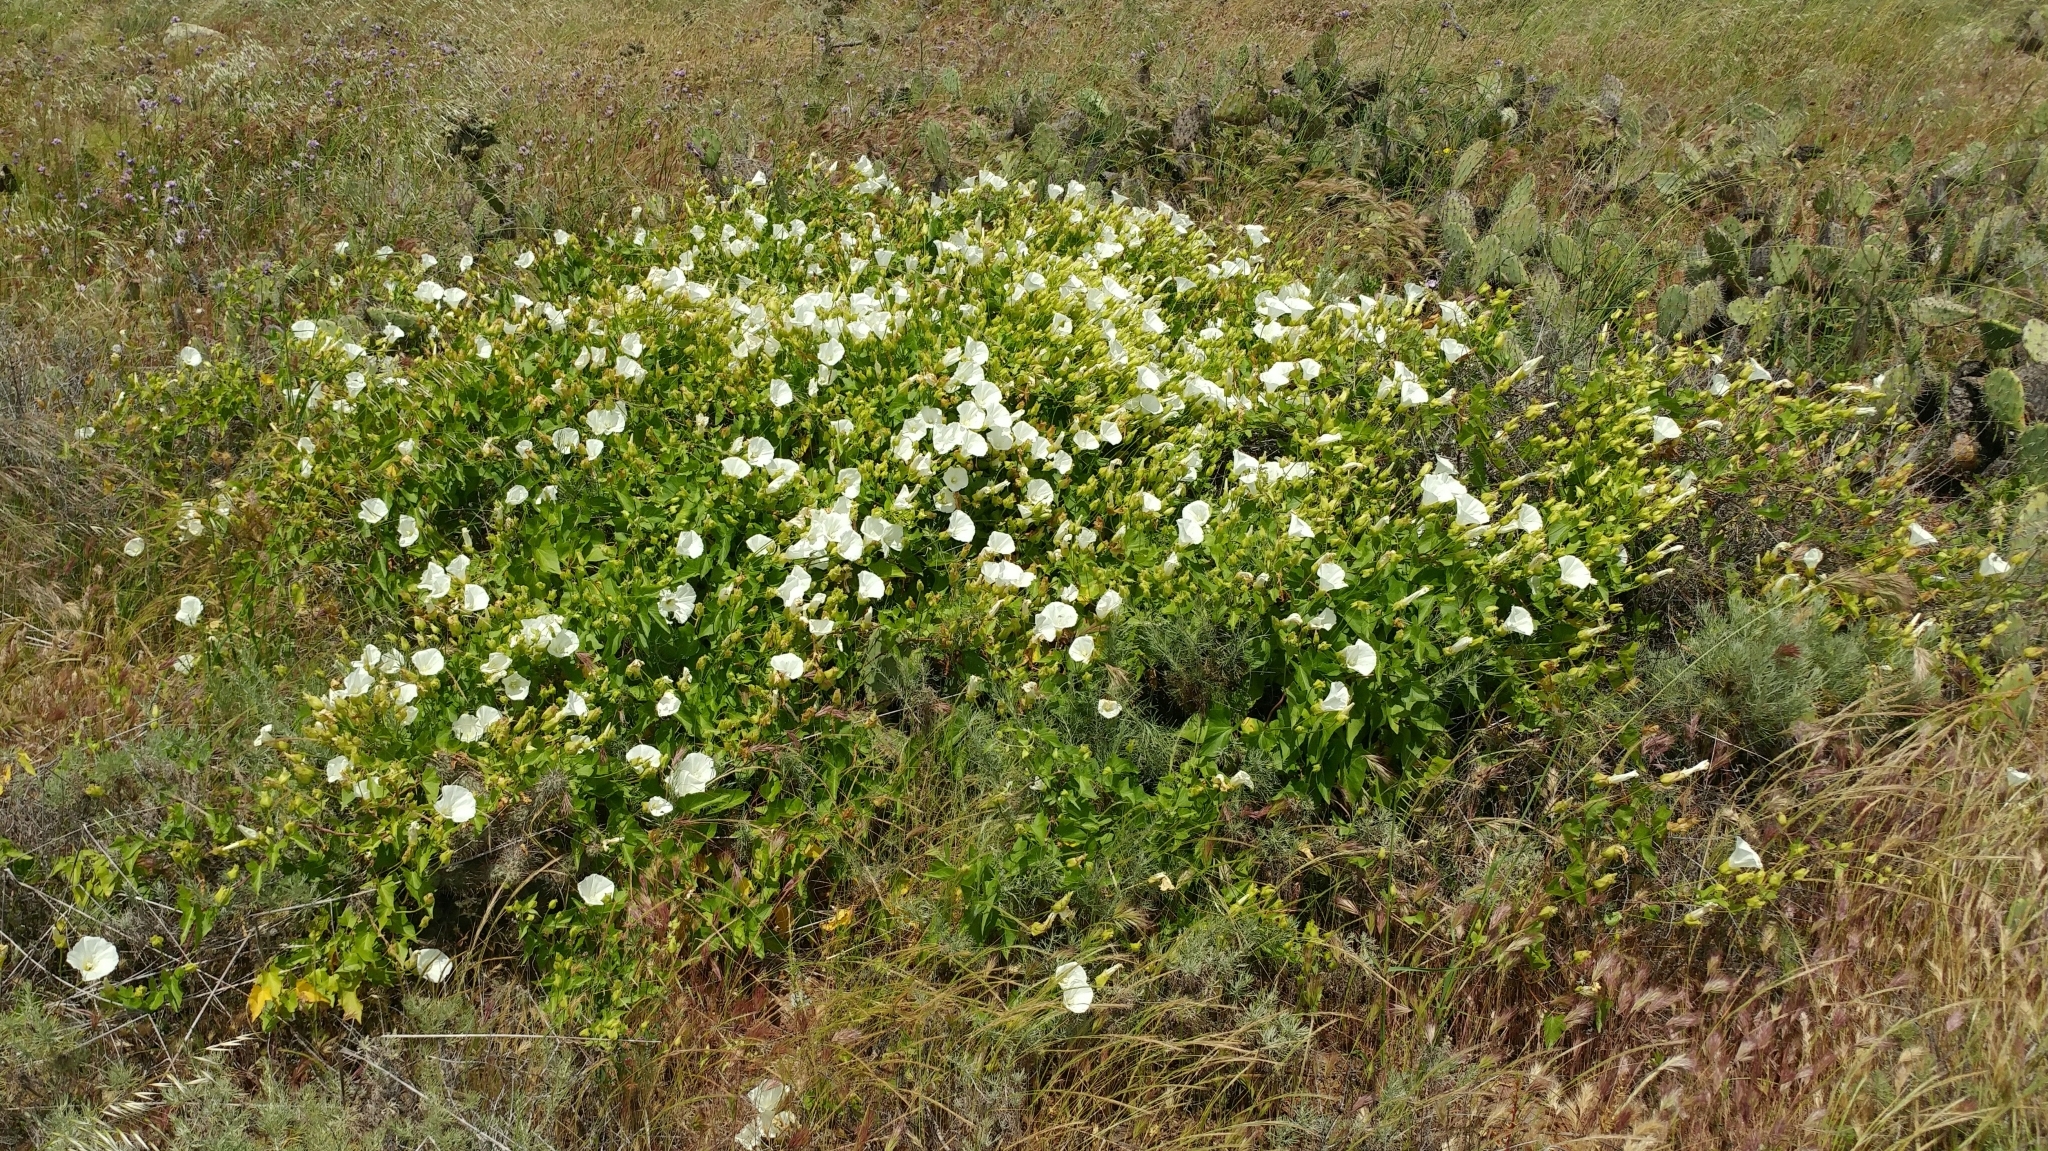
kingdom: Plantae
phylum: Tracheophyta
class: Magnoliopsida
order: Solanales
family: Convolvulaceae
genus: Calystegia
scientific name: Calystegia macrostegia
